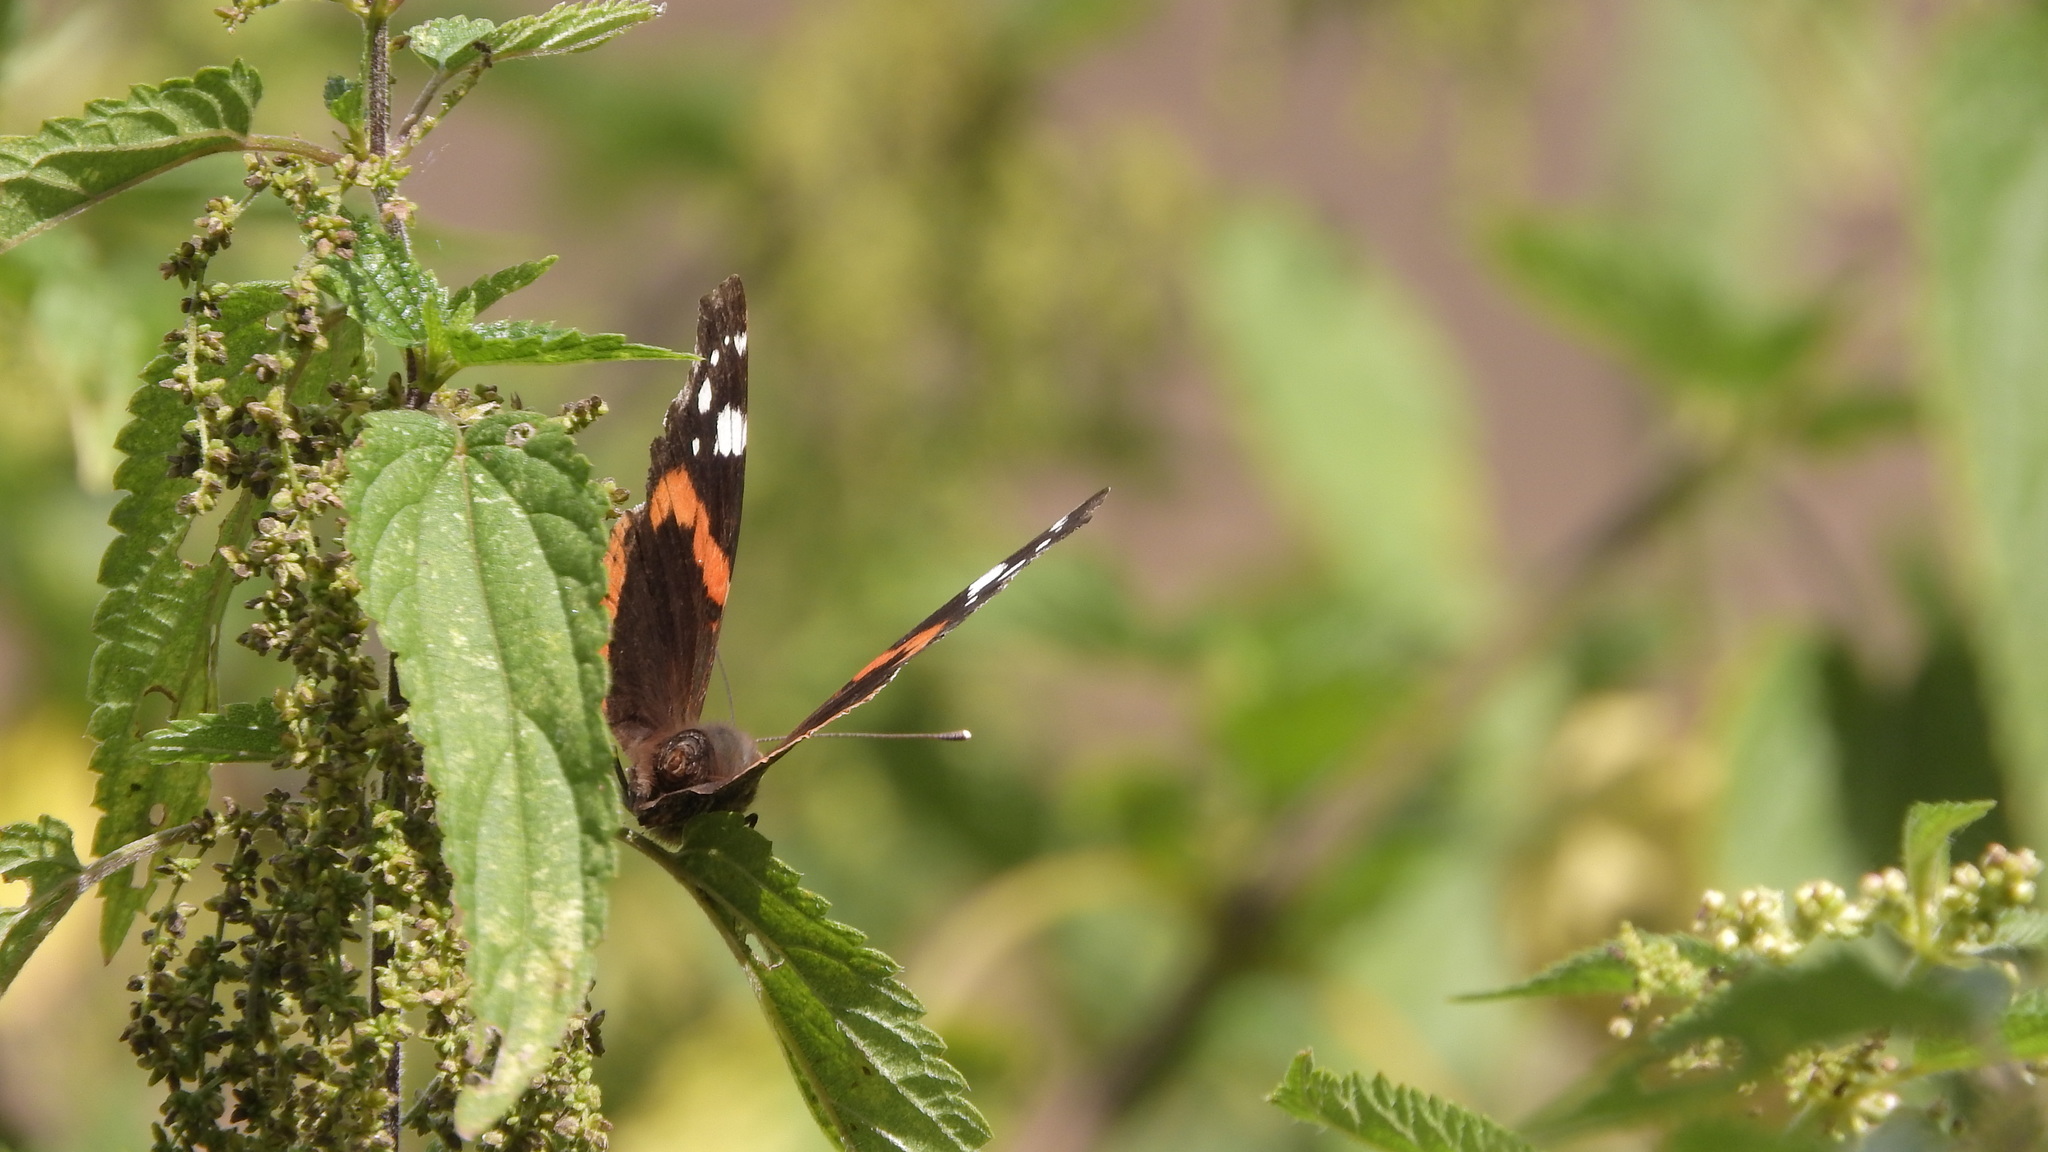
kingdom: Animalia
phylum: Arthropoda
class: Insecta
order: Lepidoptera
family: Nymphalidae
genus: Vanessa
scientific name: Vanessa atalanta
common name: Red admiral
